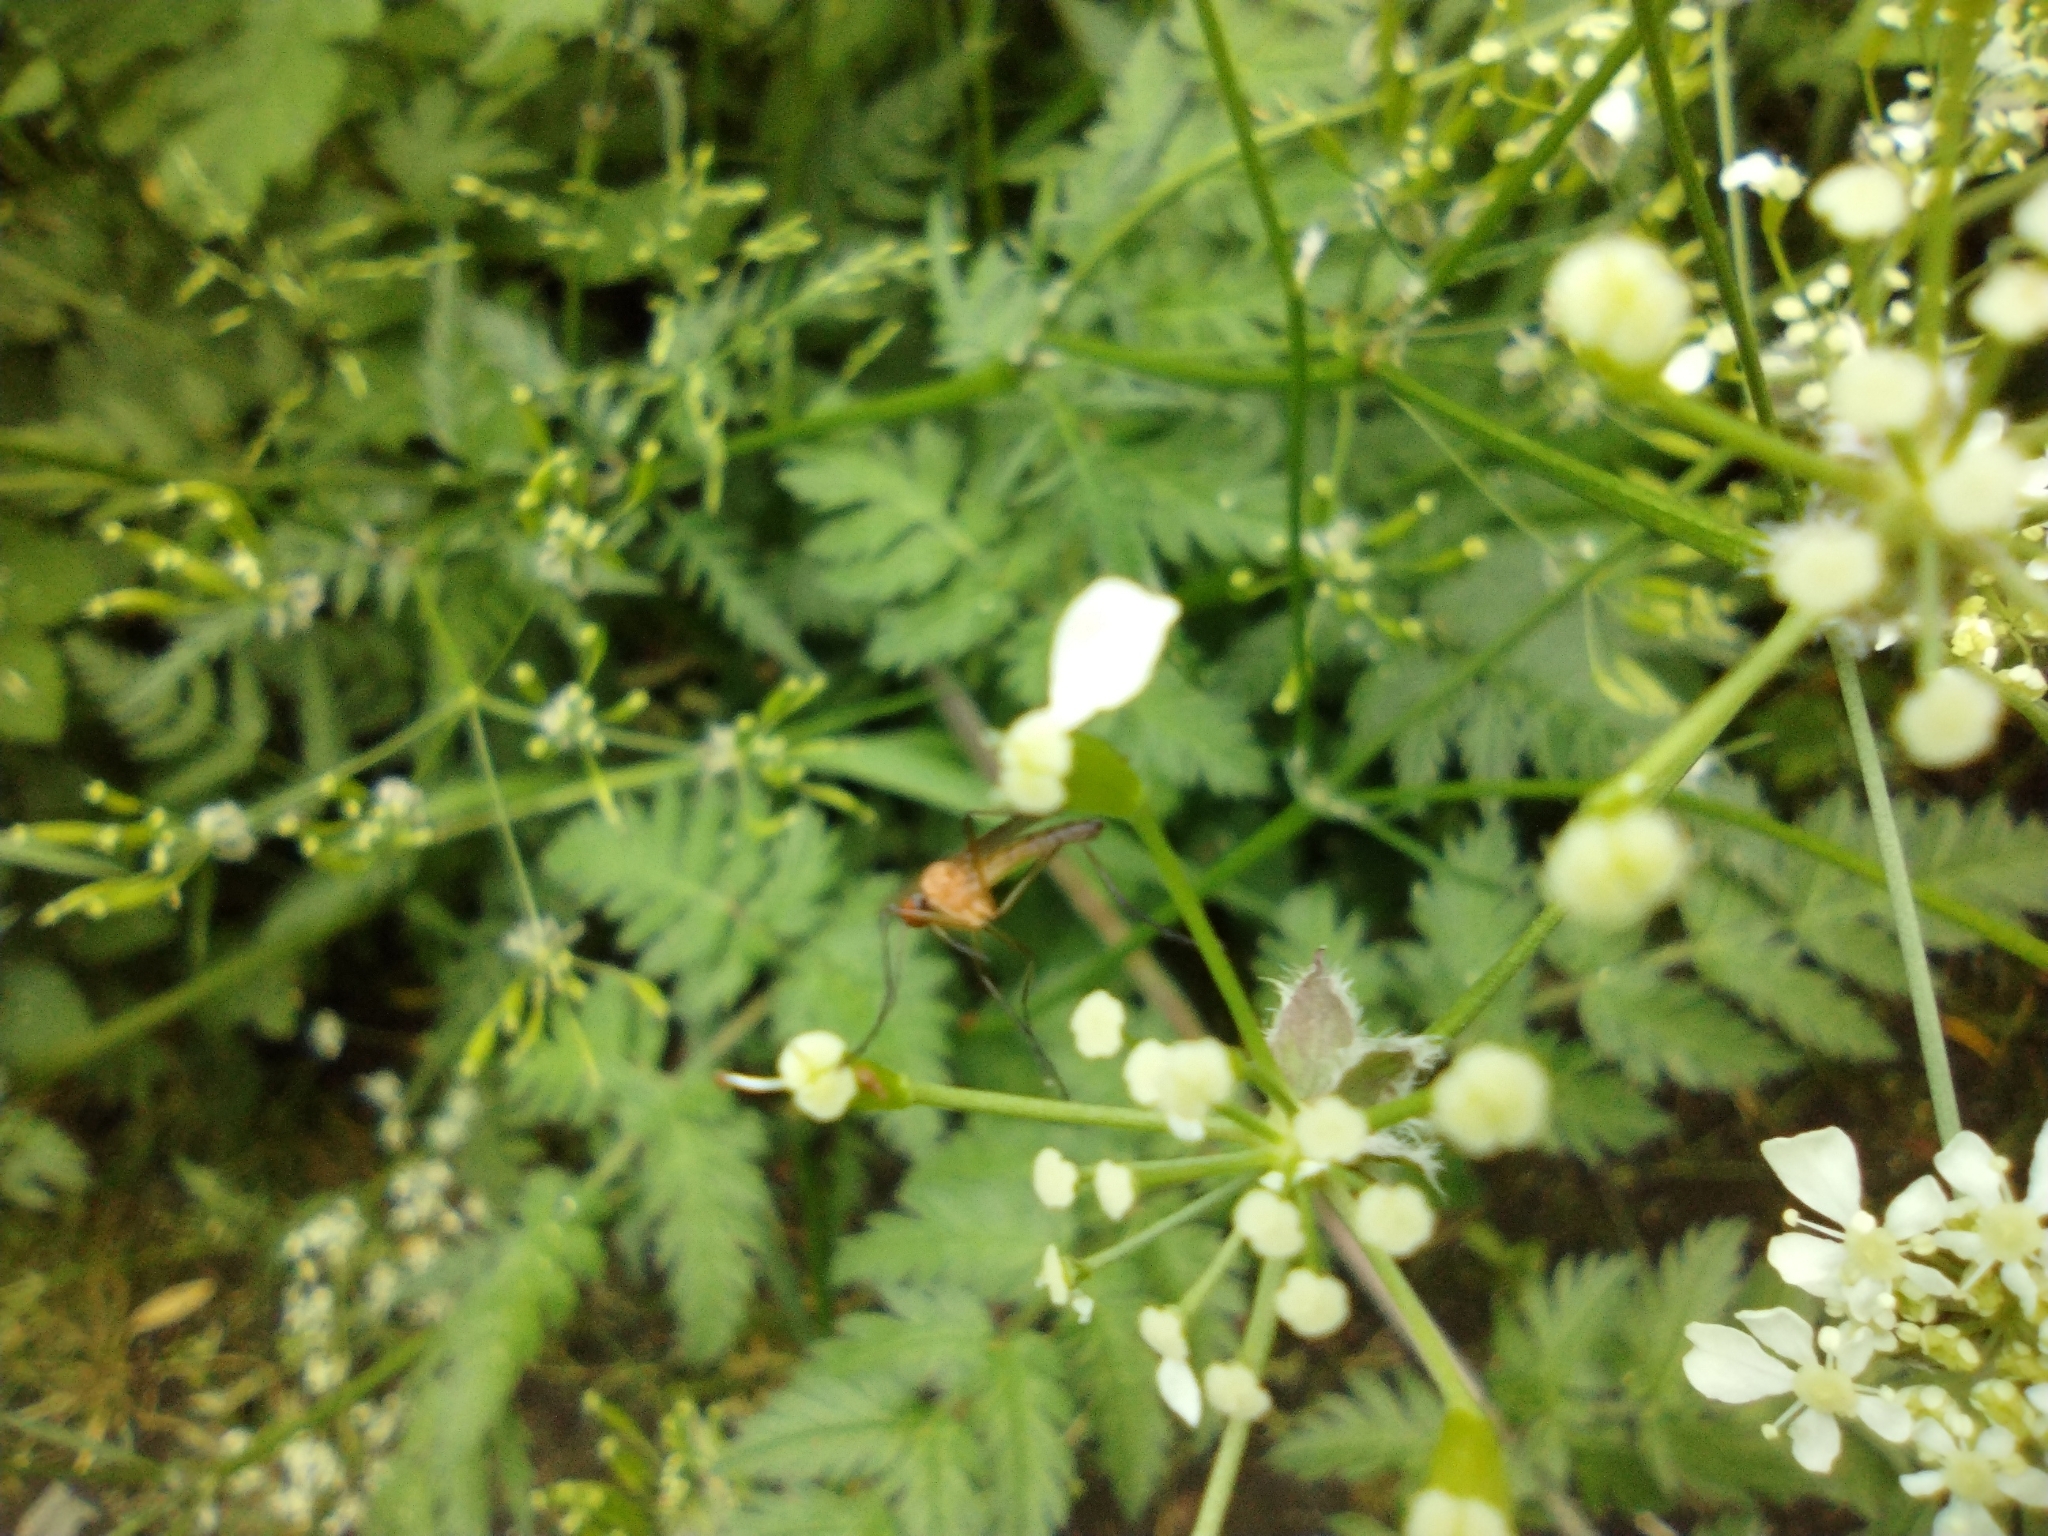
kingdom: Animalia
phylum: Arthropoda
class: Insecta
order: Diptera
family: Empididae
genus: Empis
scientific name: Empis livida
